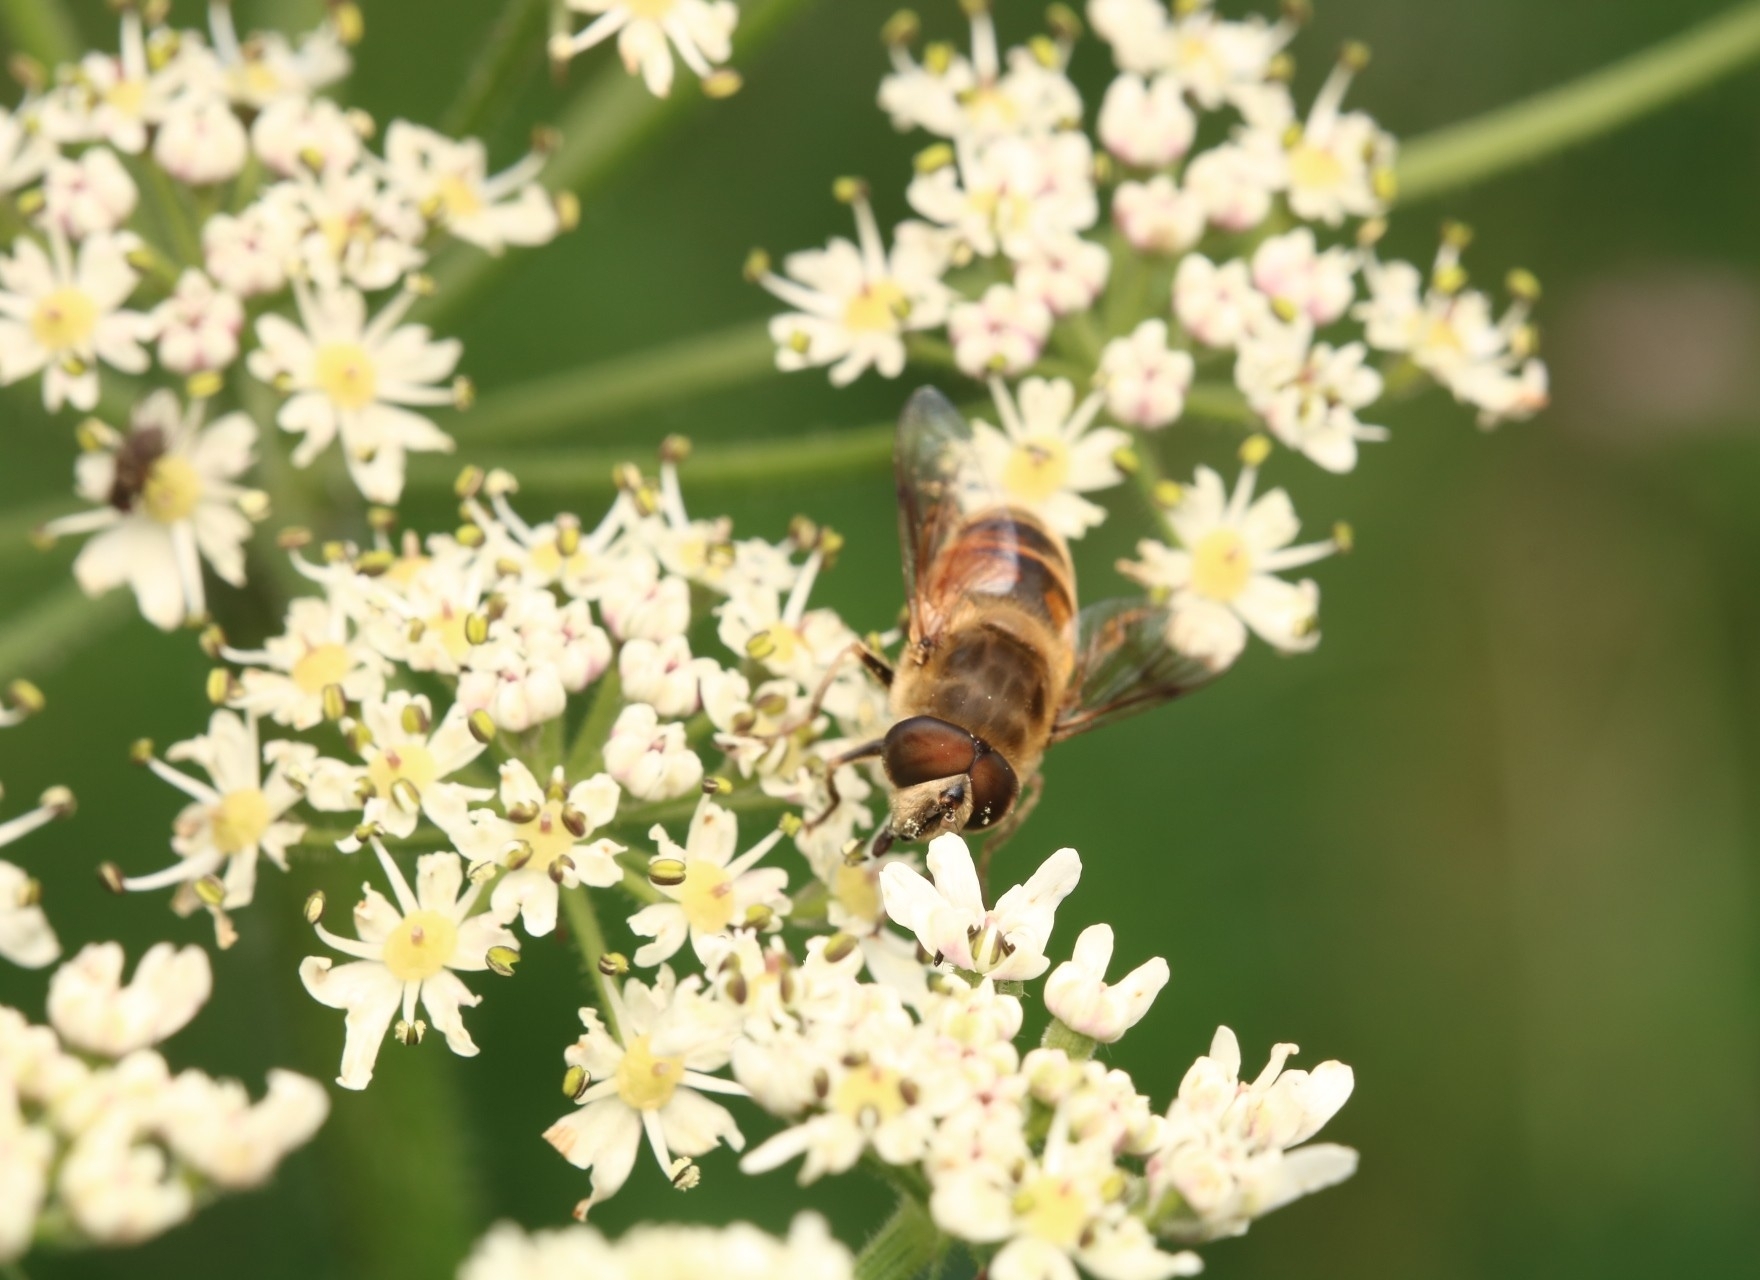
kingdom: Animalia
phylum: Arthropoda
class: Insecta
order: Diptera
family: Syrphidae
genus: Eristalis
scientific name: Eristalis tenax
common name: Drone fly
